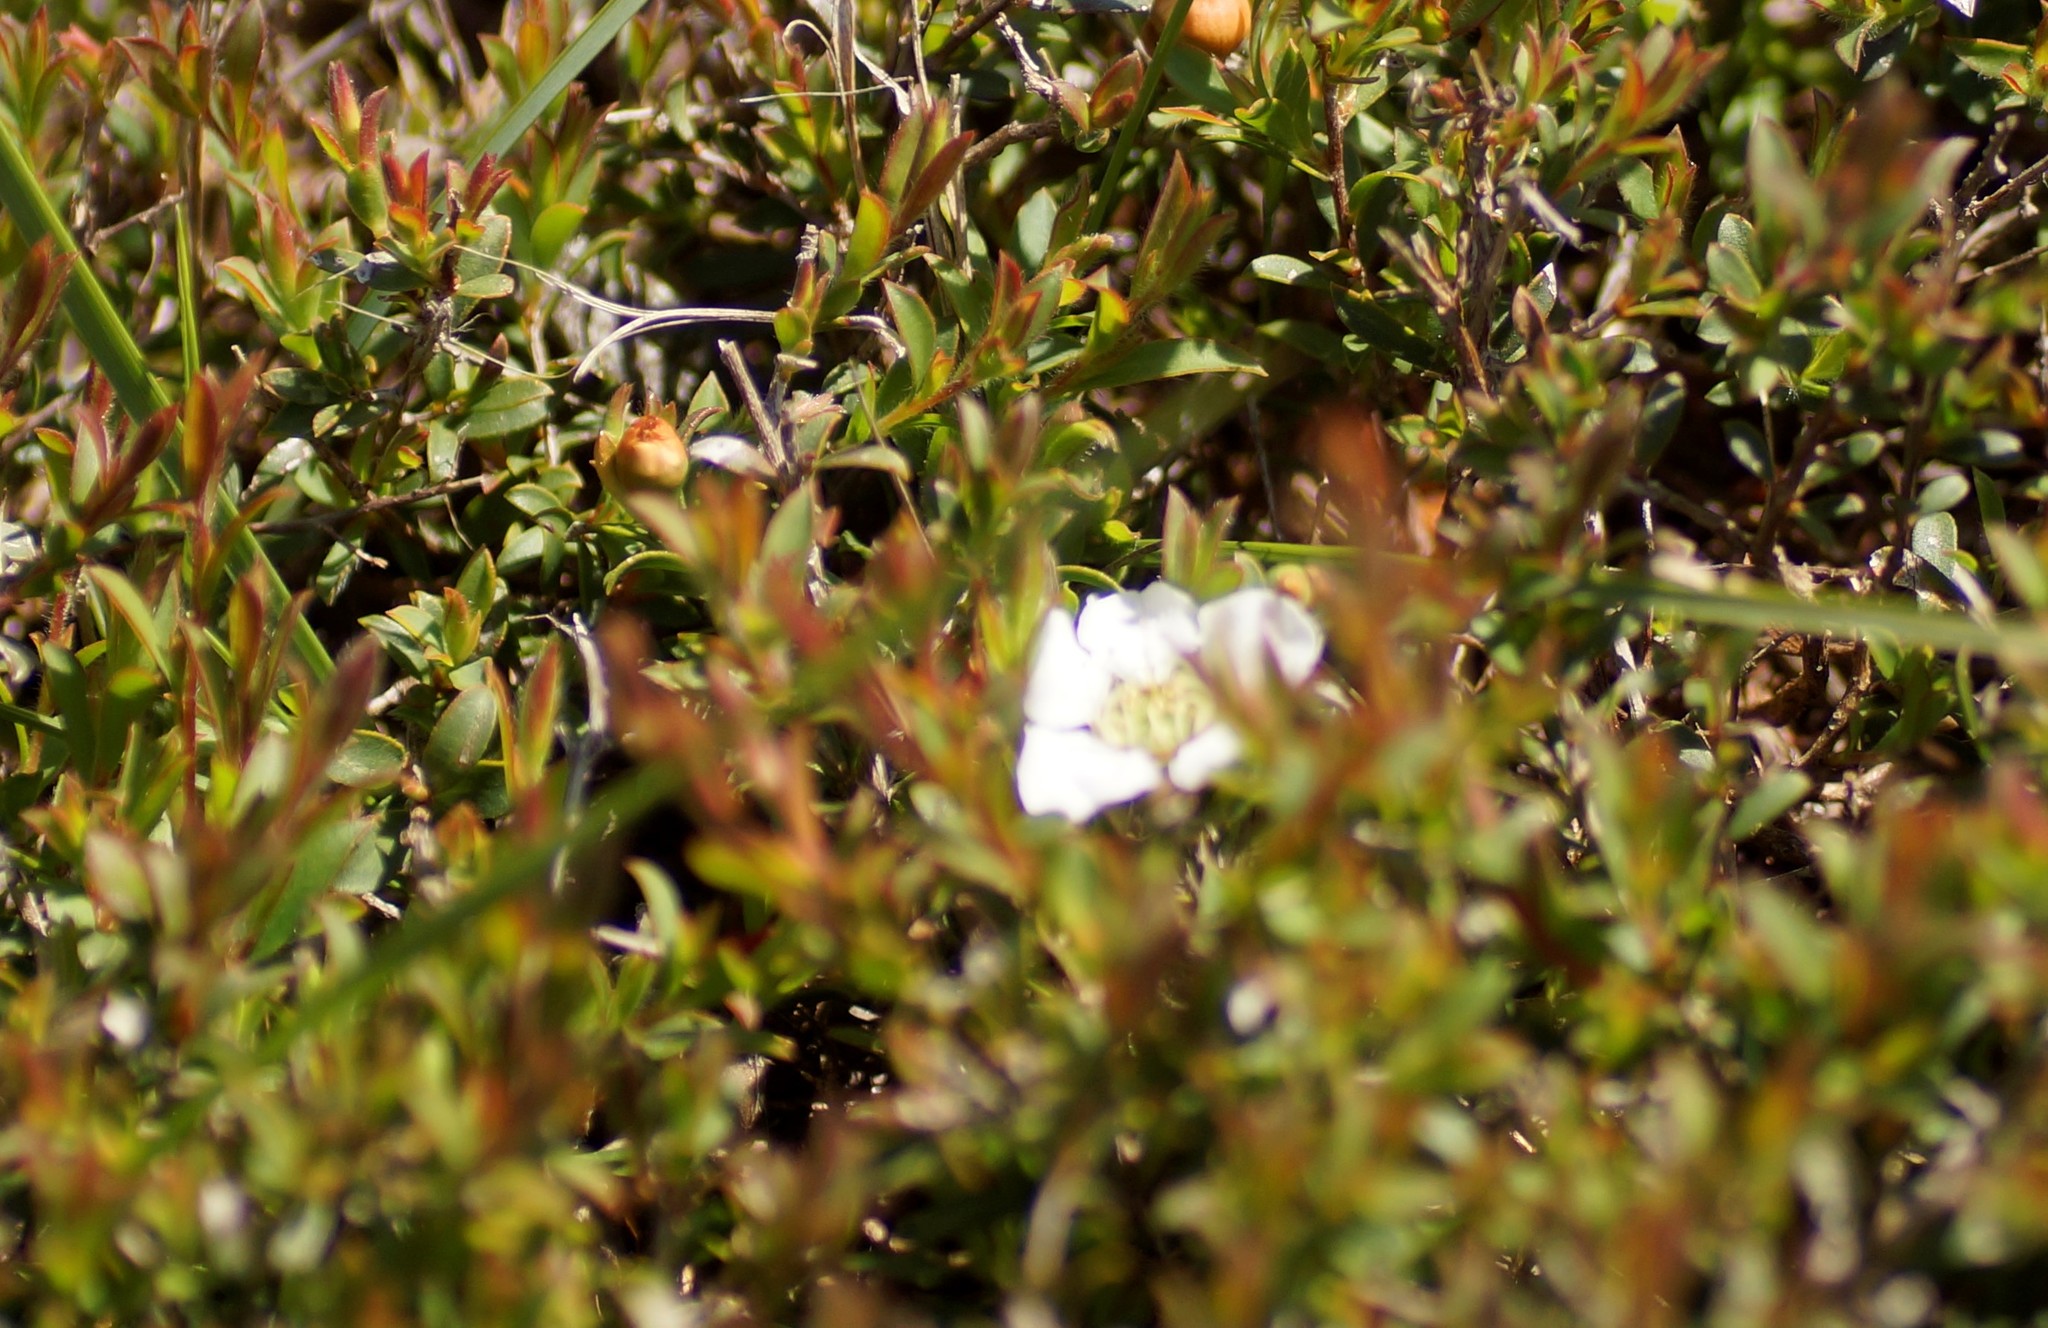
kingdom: Plantae
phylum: Tracheophyta
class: Magnoliopsida
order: Myrtales
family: Myrtaceae
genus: Leptospermum
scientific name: Leptospermum myrsinoides
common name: Heath teatree
